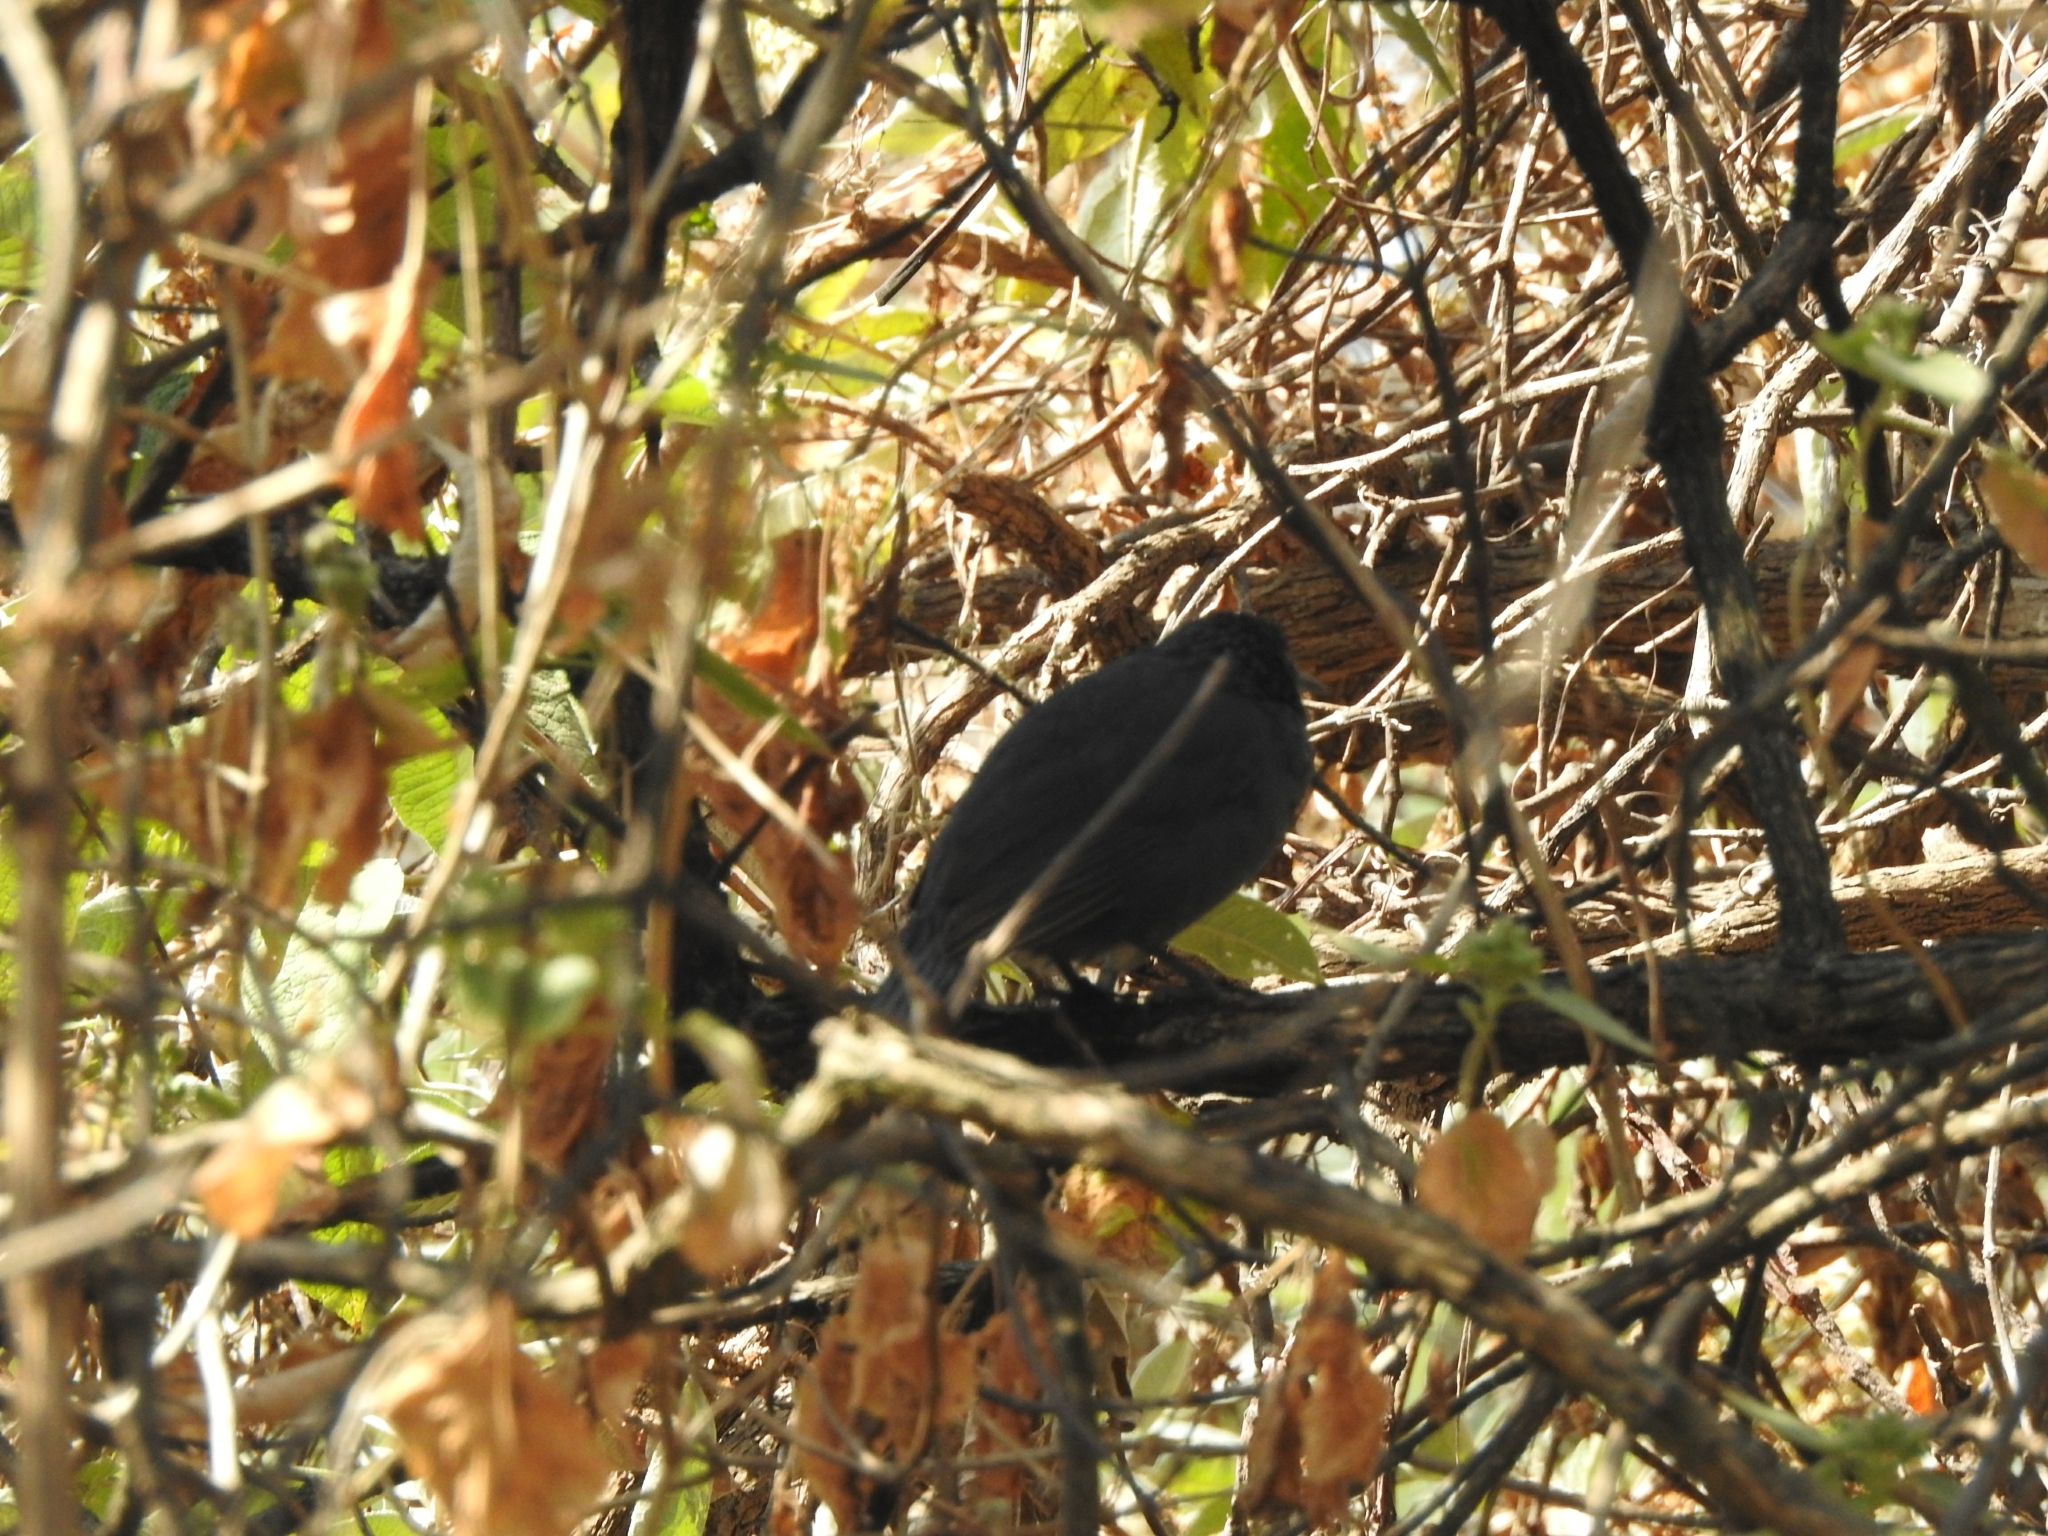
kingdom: Animalia
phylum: Chordata
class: Aves
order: Passeriformes
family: Mimidae
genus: Melanotis
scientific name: Melanotis caerulescens
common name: Blue mockingbird
